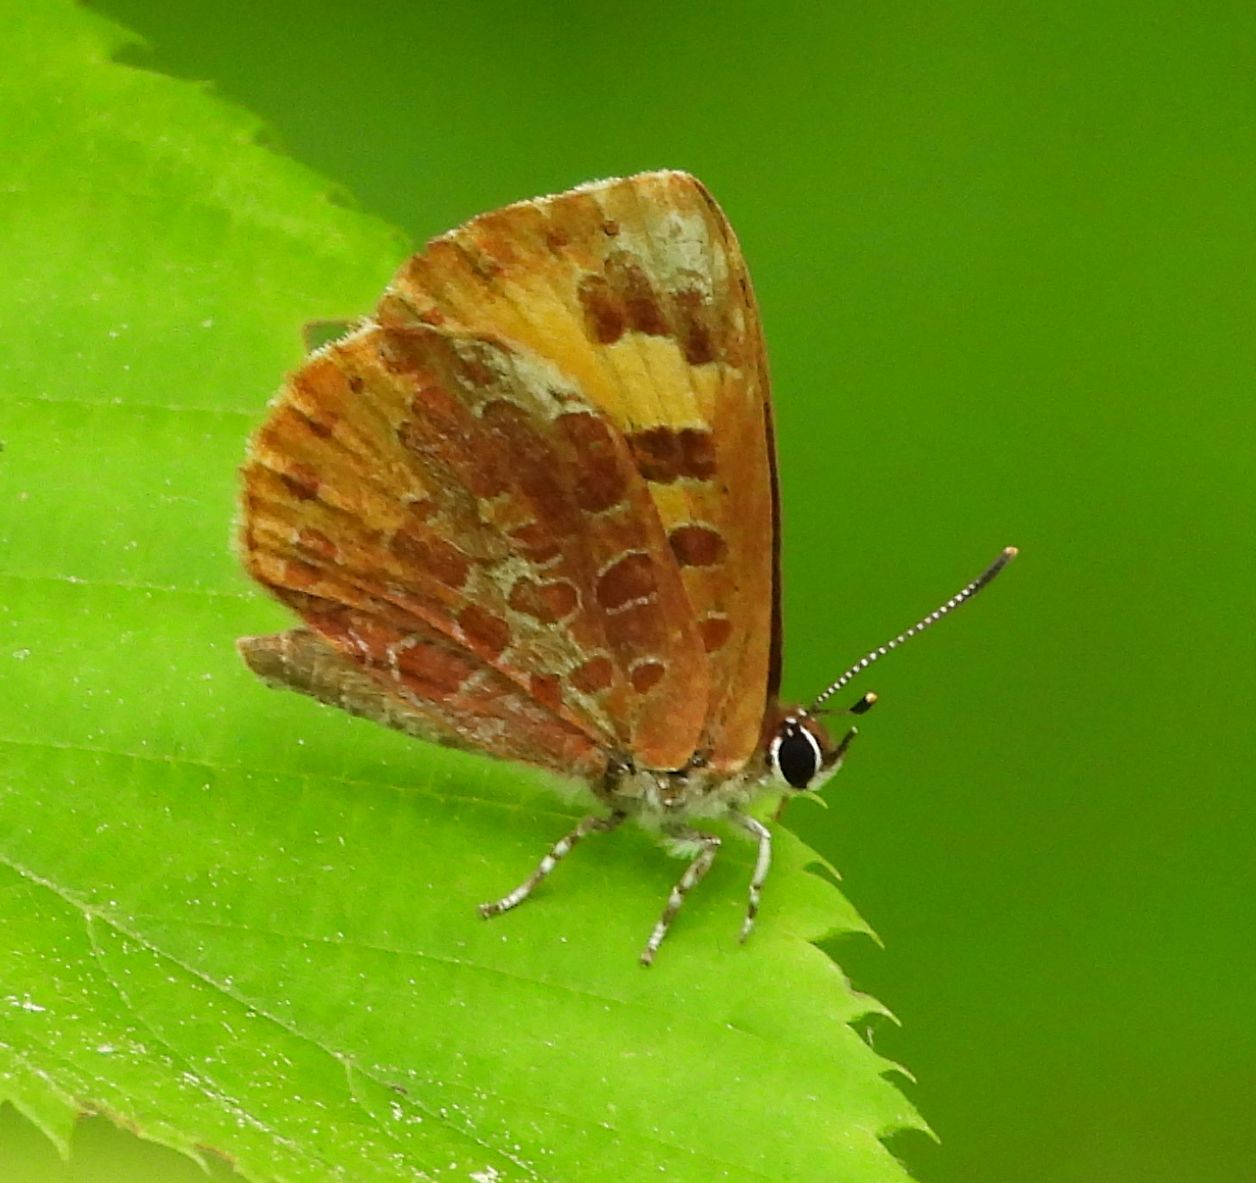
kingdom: Animalia
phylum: Arthropoda
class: Insecta
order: Lepidoptera
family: Lycaenidae
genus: Feniseca
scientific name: Feniseca tarquinius
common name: Harvester
